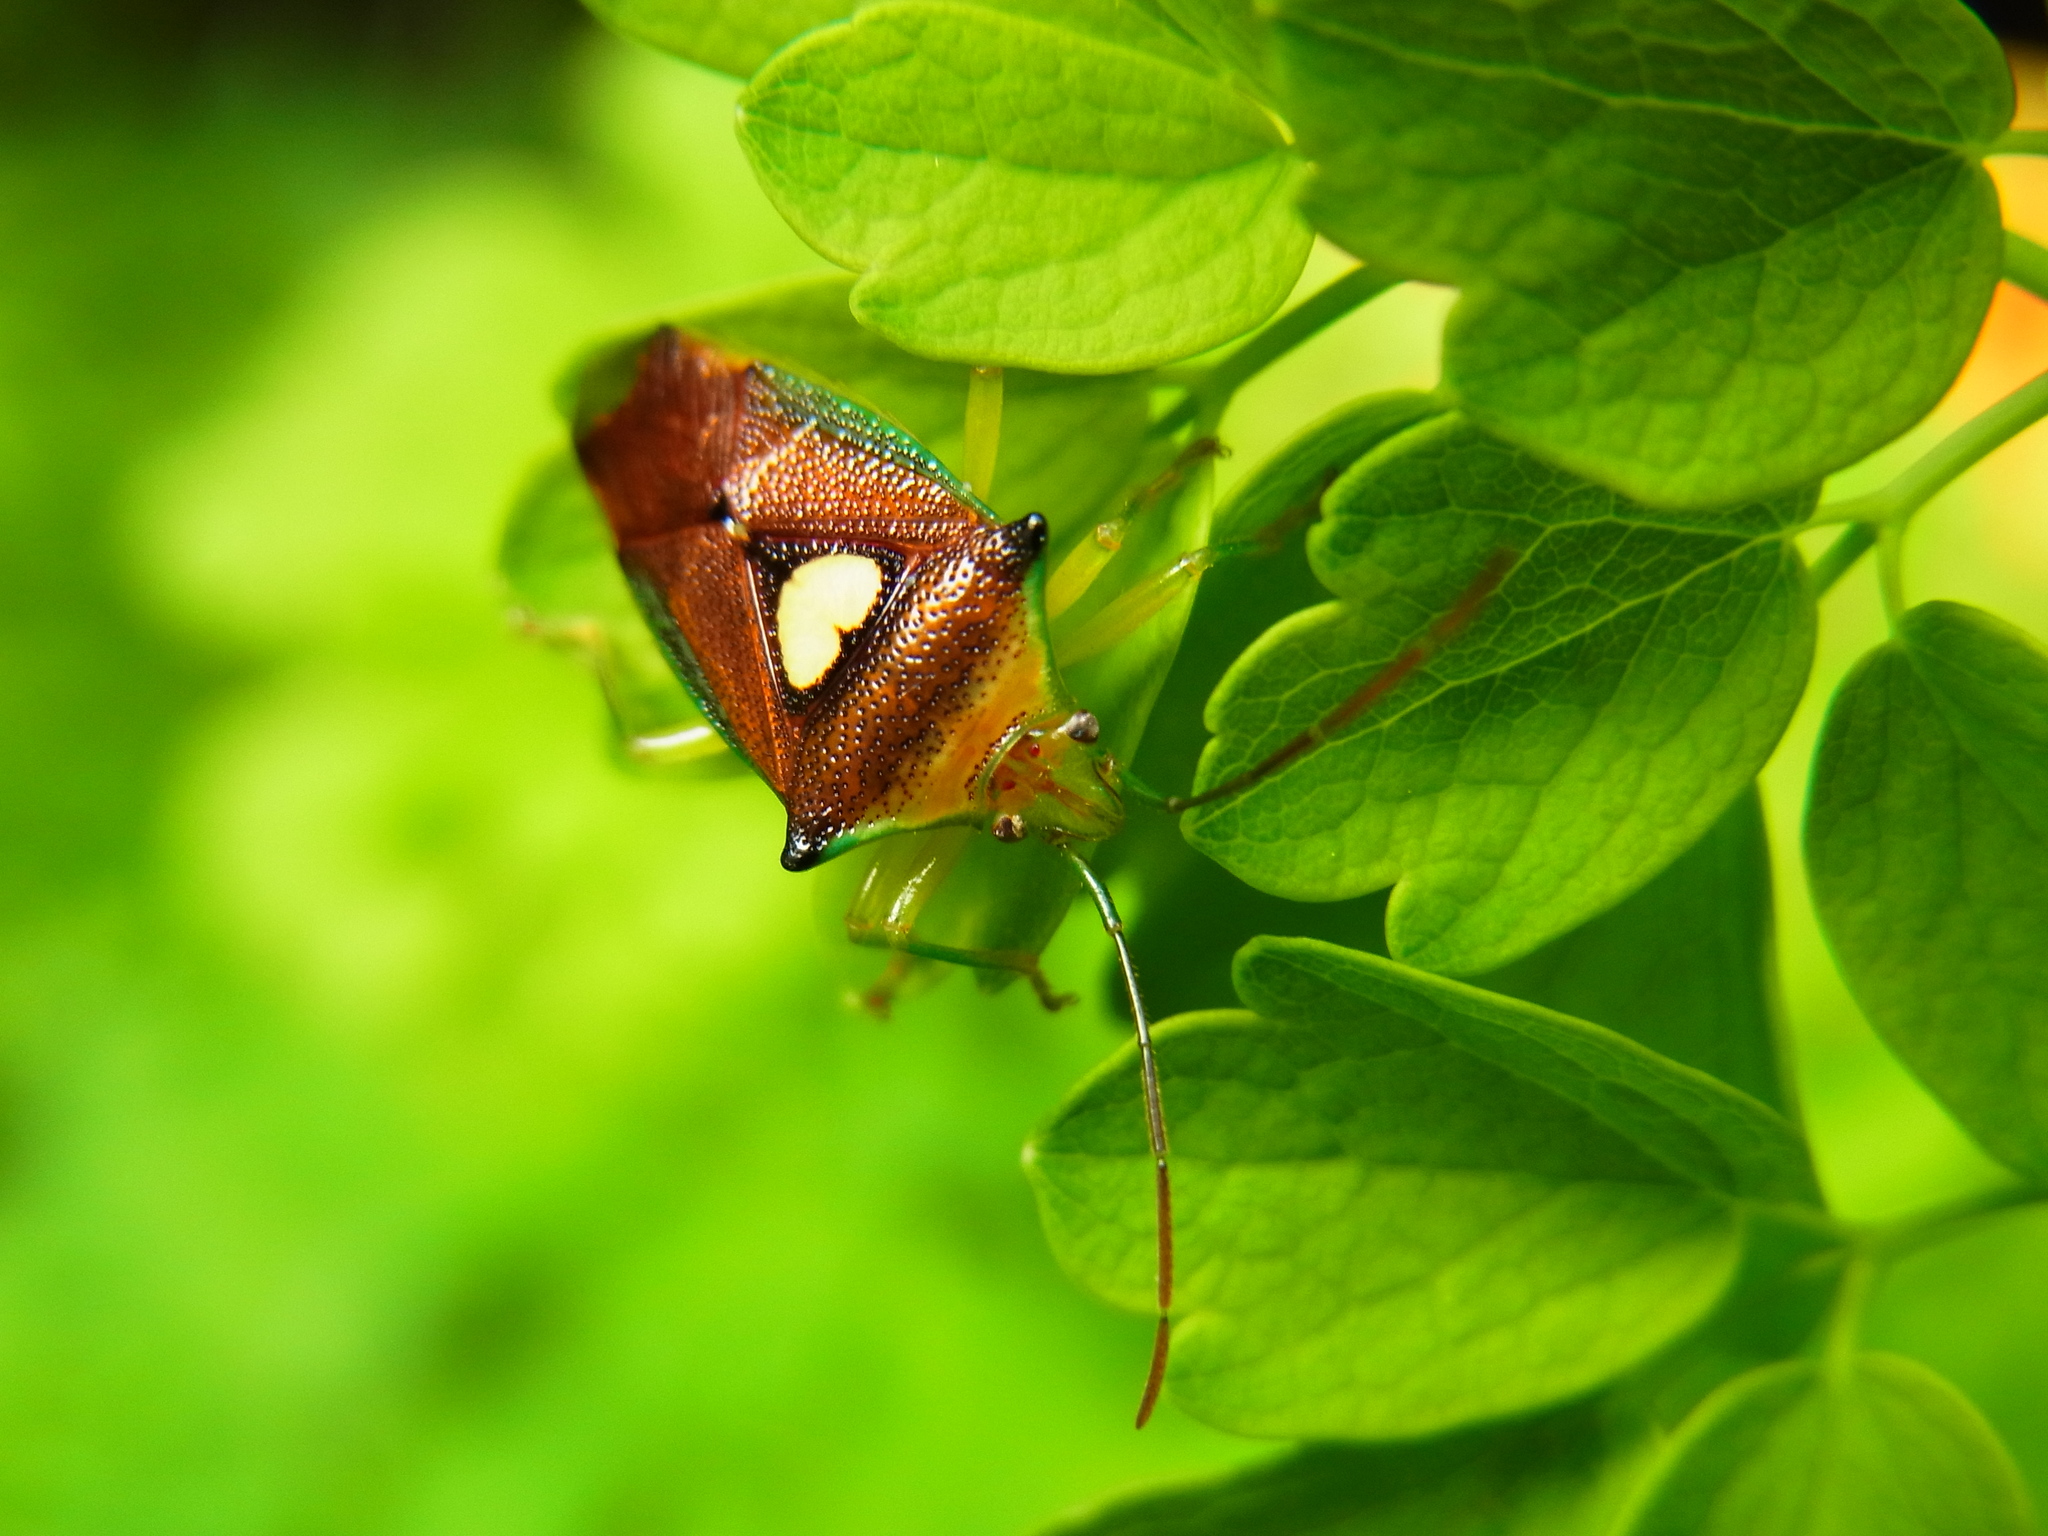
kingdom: Animalia
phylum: Arthropoda
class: Insecta
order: Hemiptera
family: Acanthosomatidae
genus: Sastragala
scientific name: Sastragala esakii
